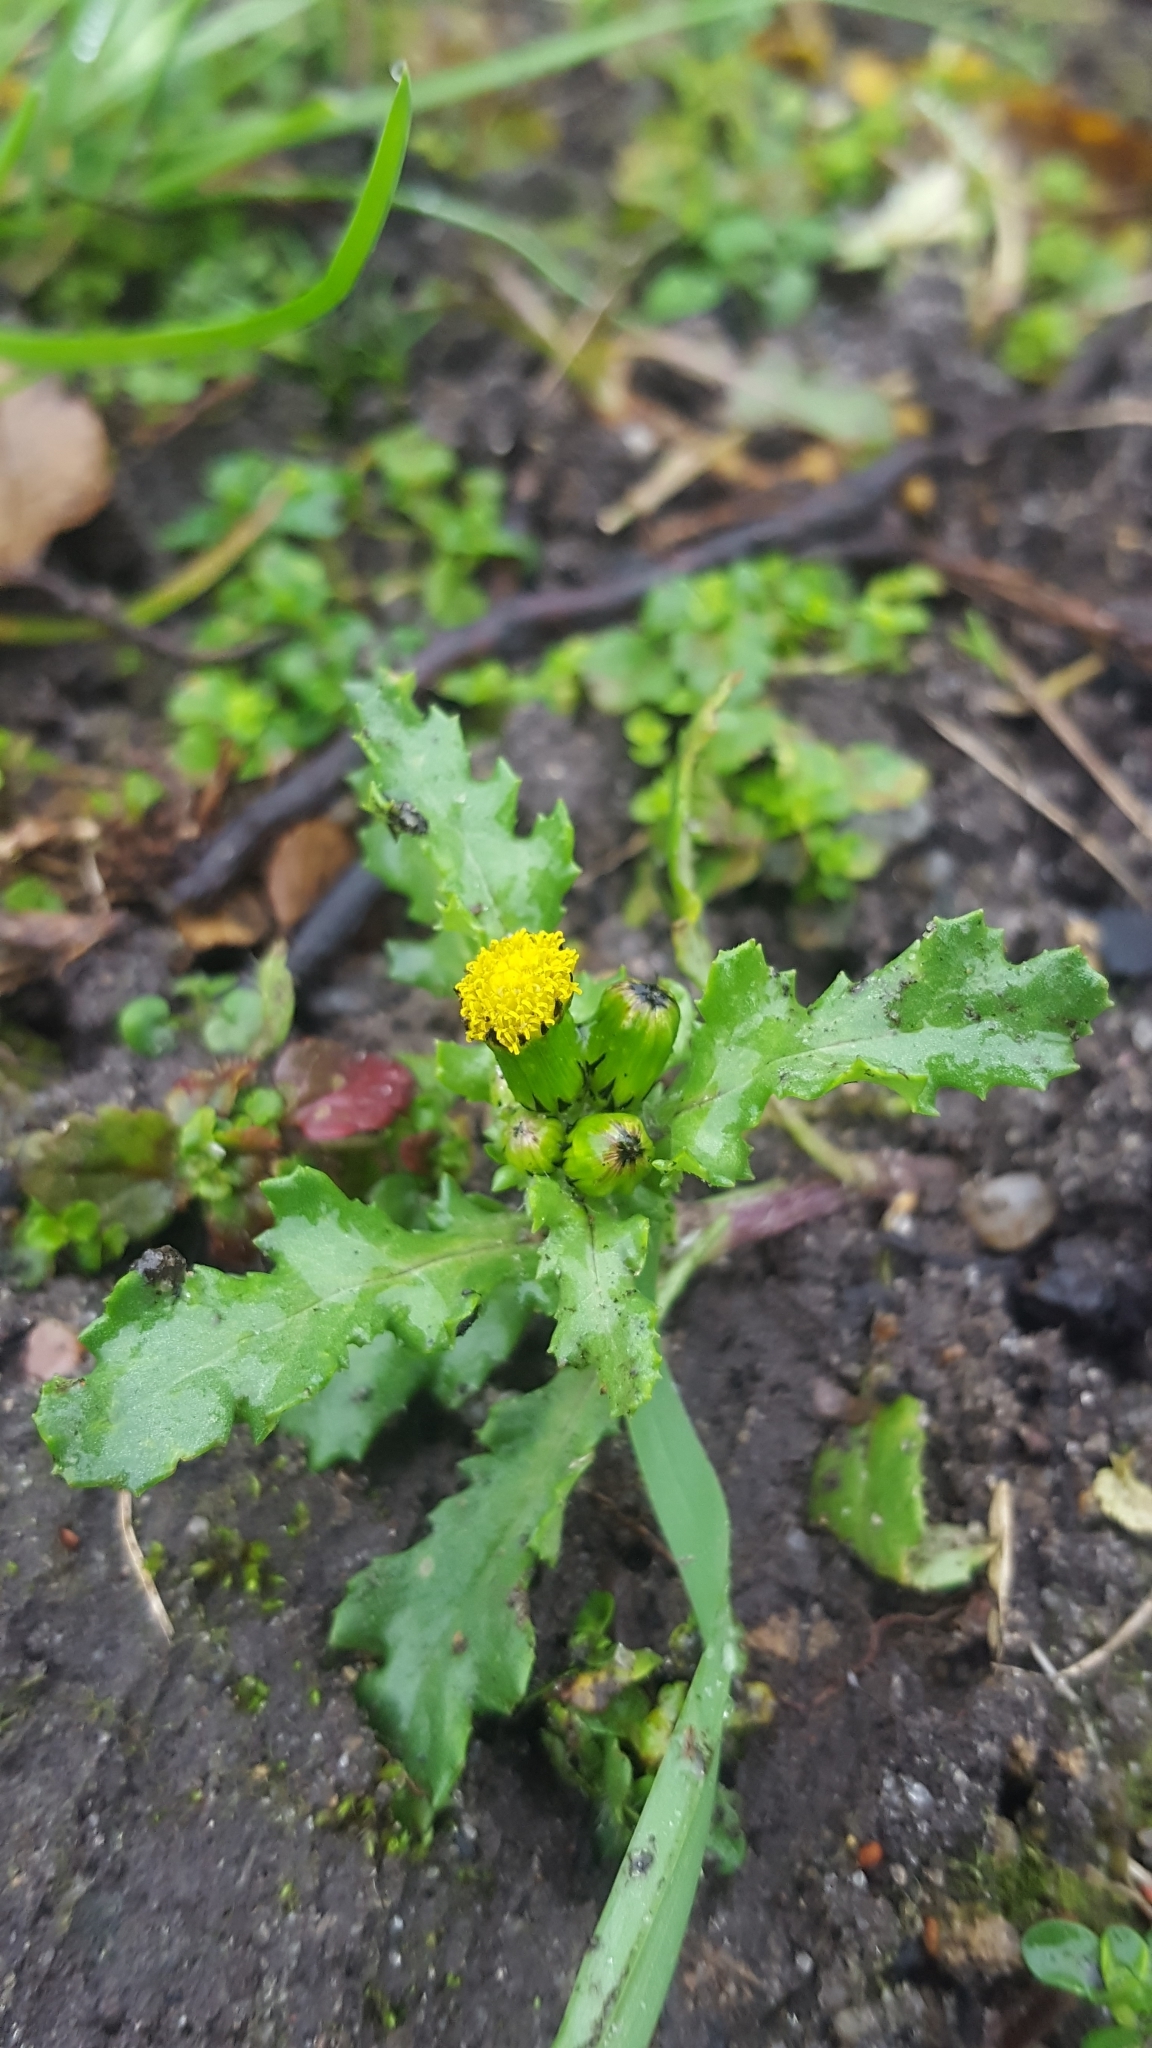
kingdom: Plantae
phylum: Tracheophyta
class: Magnoliopsida
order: Asterales
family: Asteraceae
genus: Senecio
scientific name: Senecio vulgaris
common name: Old-man-in-the-spring
